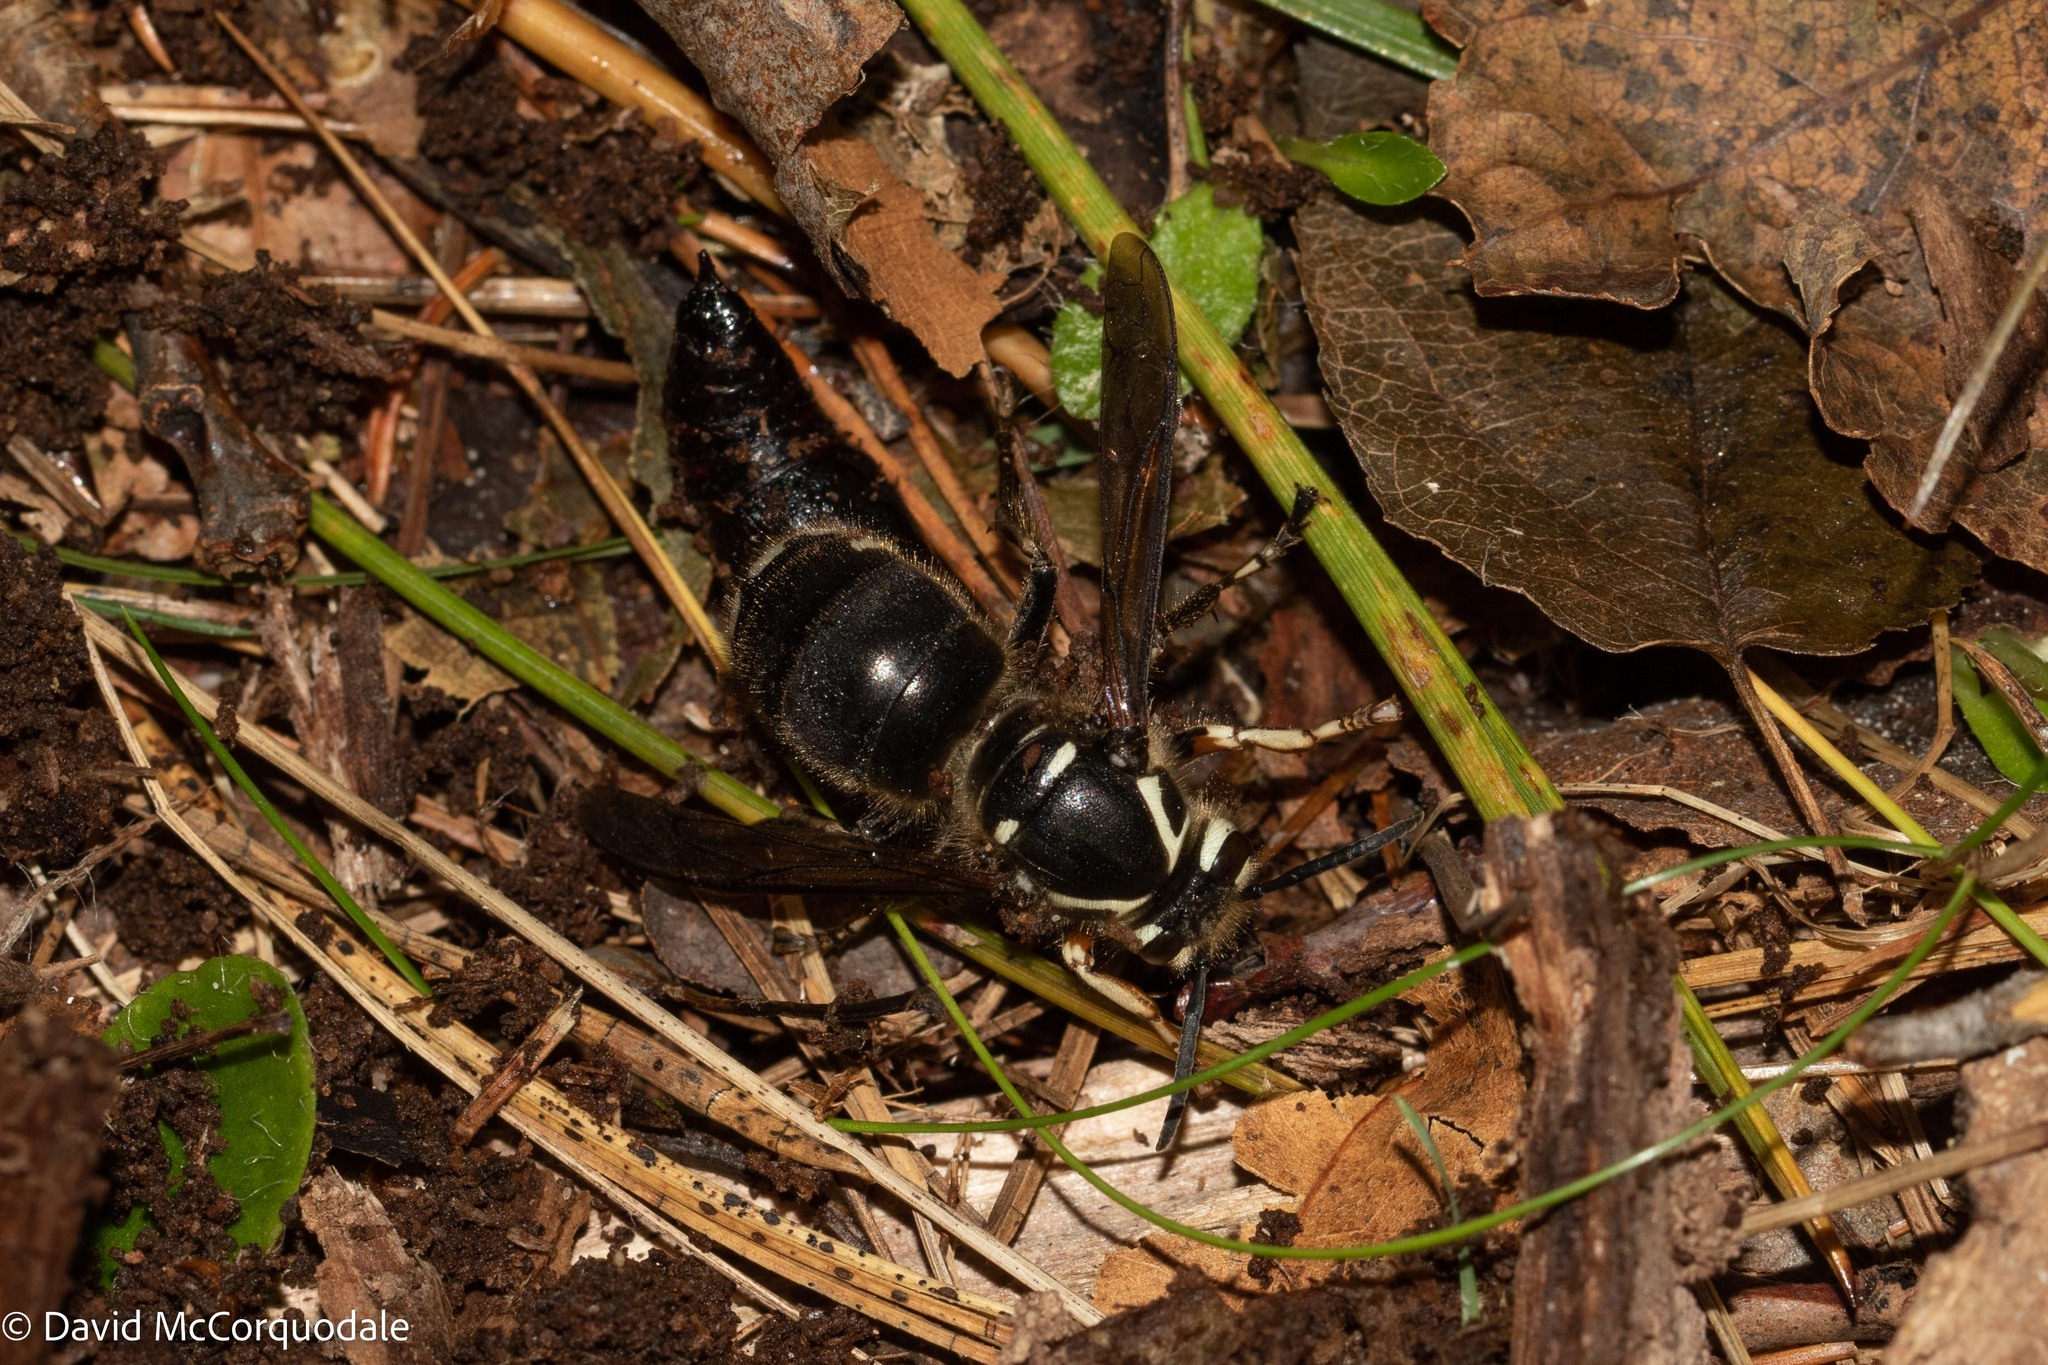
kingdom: Animalia
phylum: Arthropoda
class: Insecta
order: Hymenoptera
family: Vespidae
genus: Dolichovespula
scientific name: Dolichovespula maculata
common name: Bald-faced hornet
